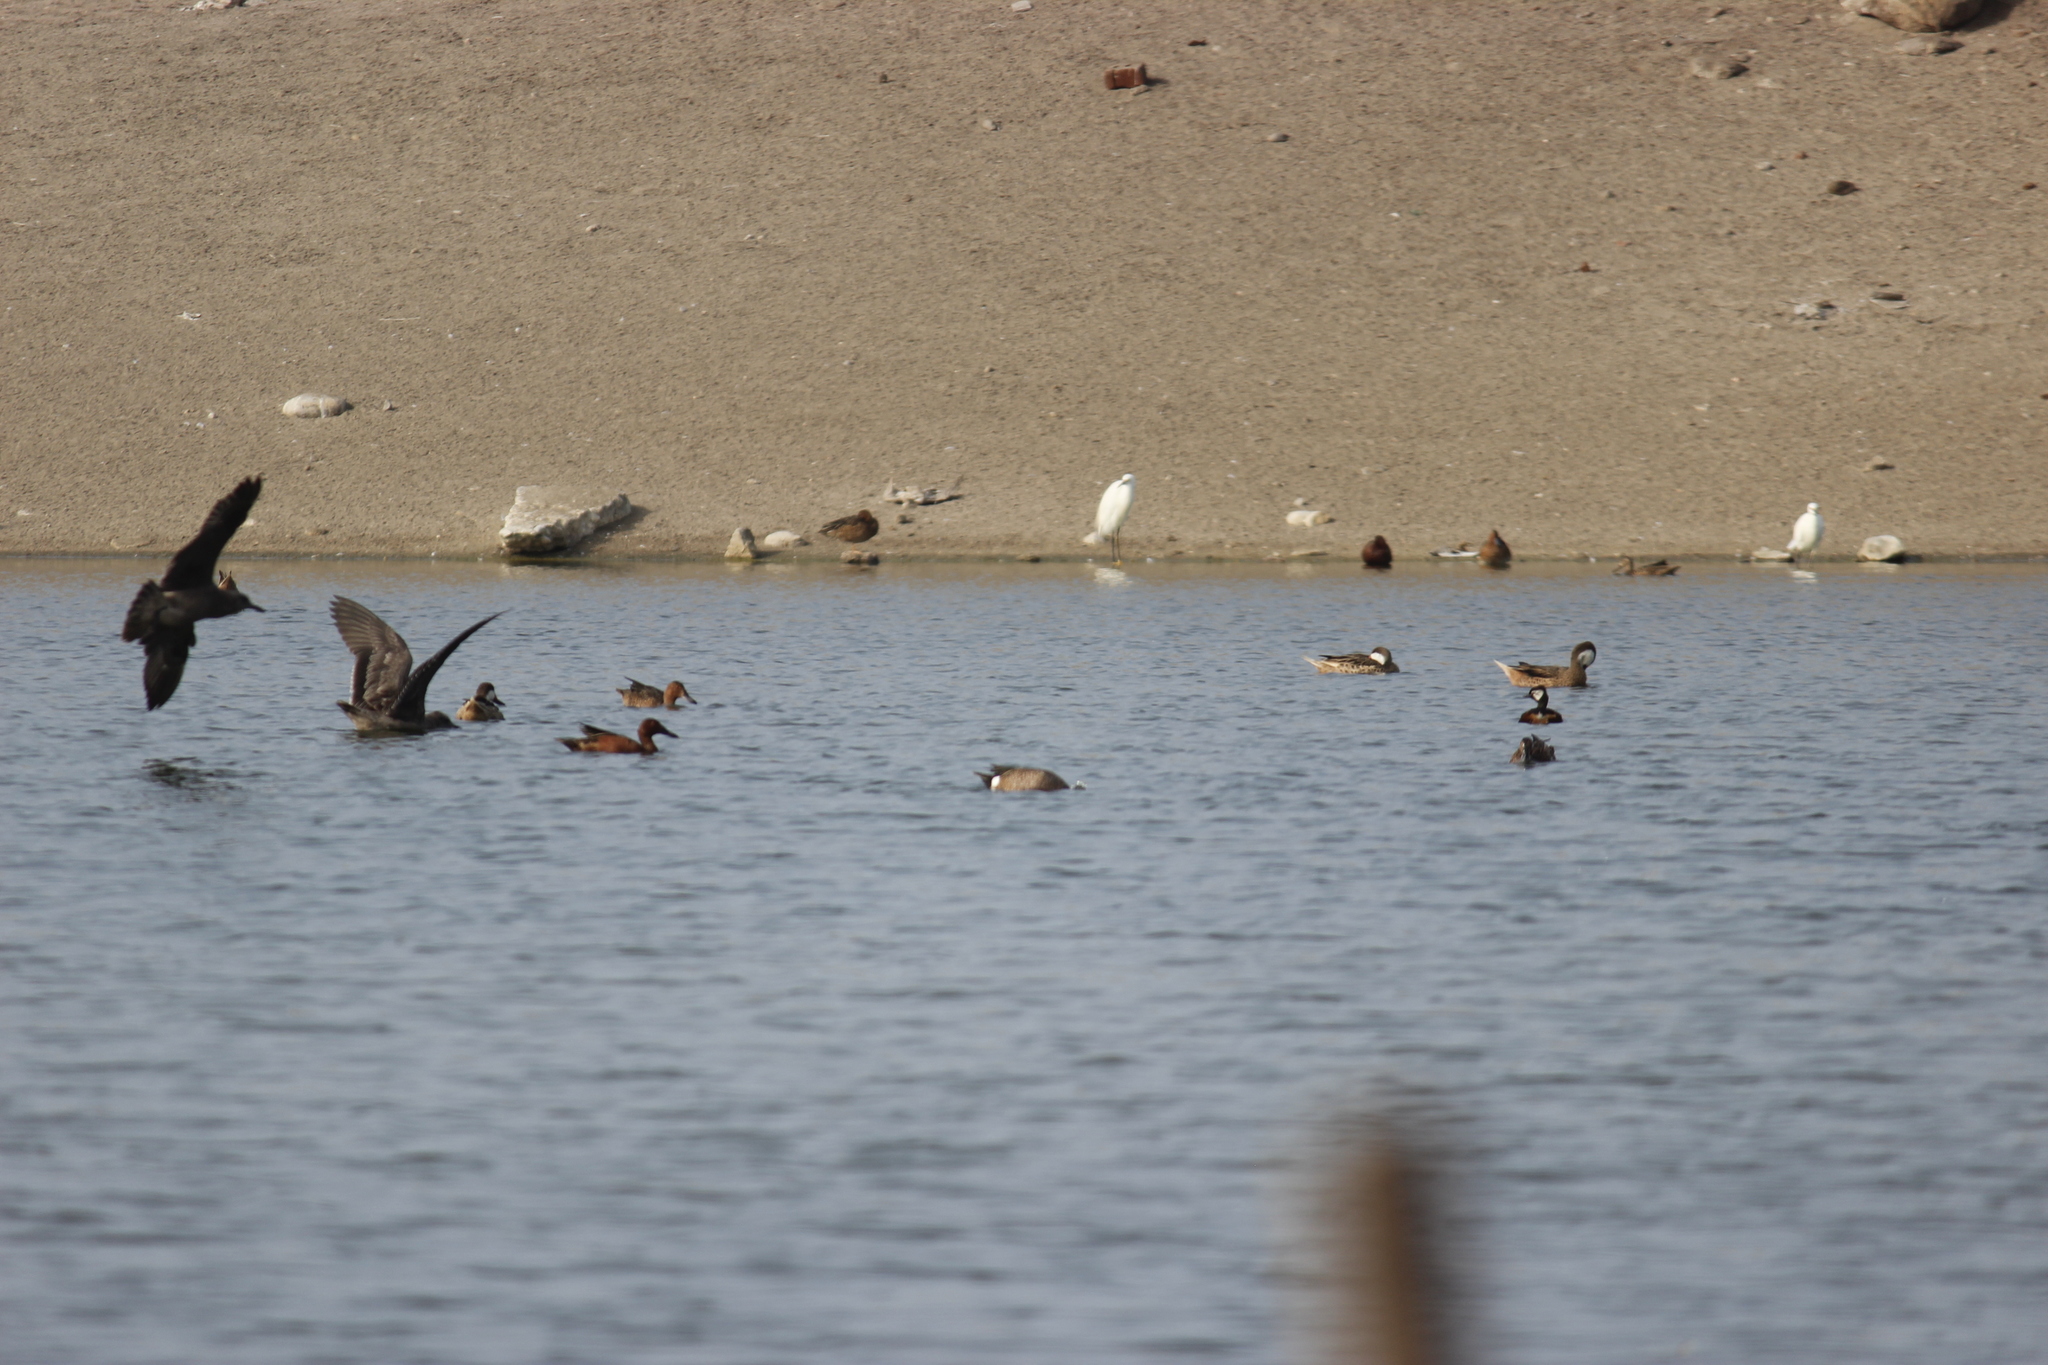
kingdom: Animalia
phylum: Chordata
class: Aves
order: Anseriformes
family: Anatidae
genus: Spatula
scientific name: Spatula discors
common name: Blue-winged teal
